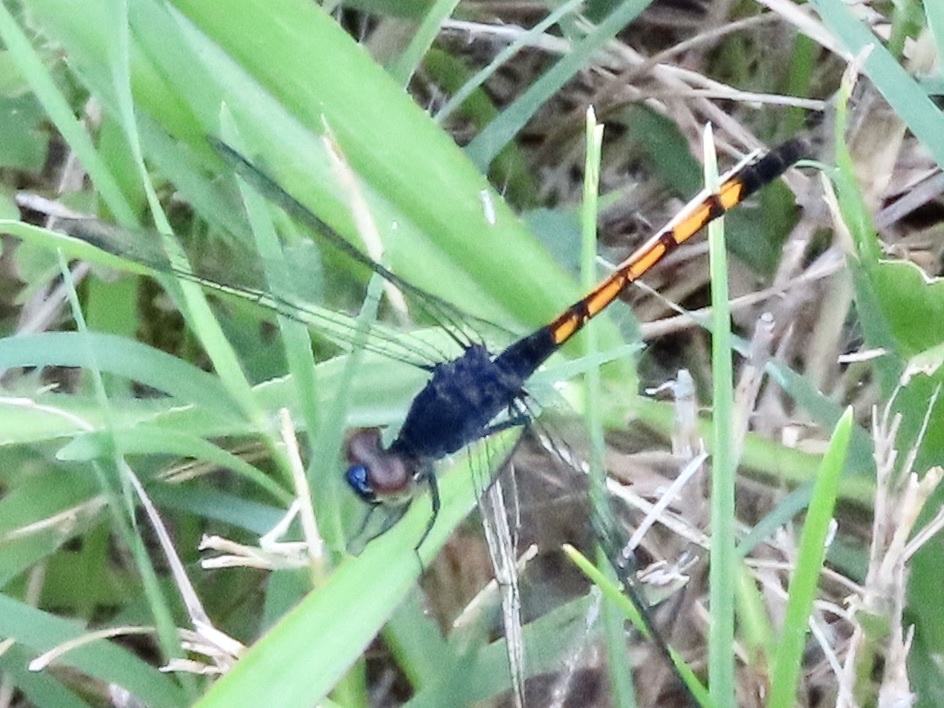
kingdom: Animalia
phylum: Arthropoda
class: Insecta
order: Odonata
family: Libellulidae
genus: Erythrodiplax
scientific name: Erythrodiplax berenice
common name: Seaside dragonlet
